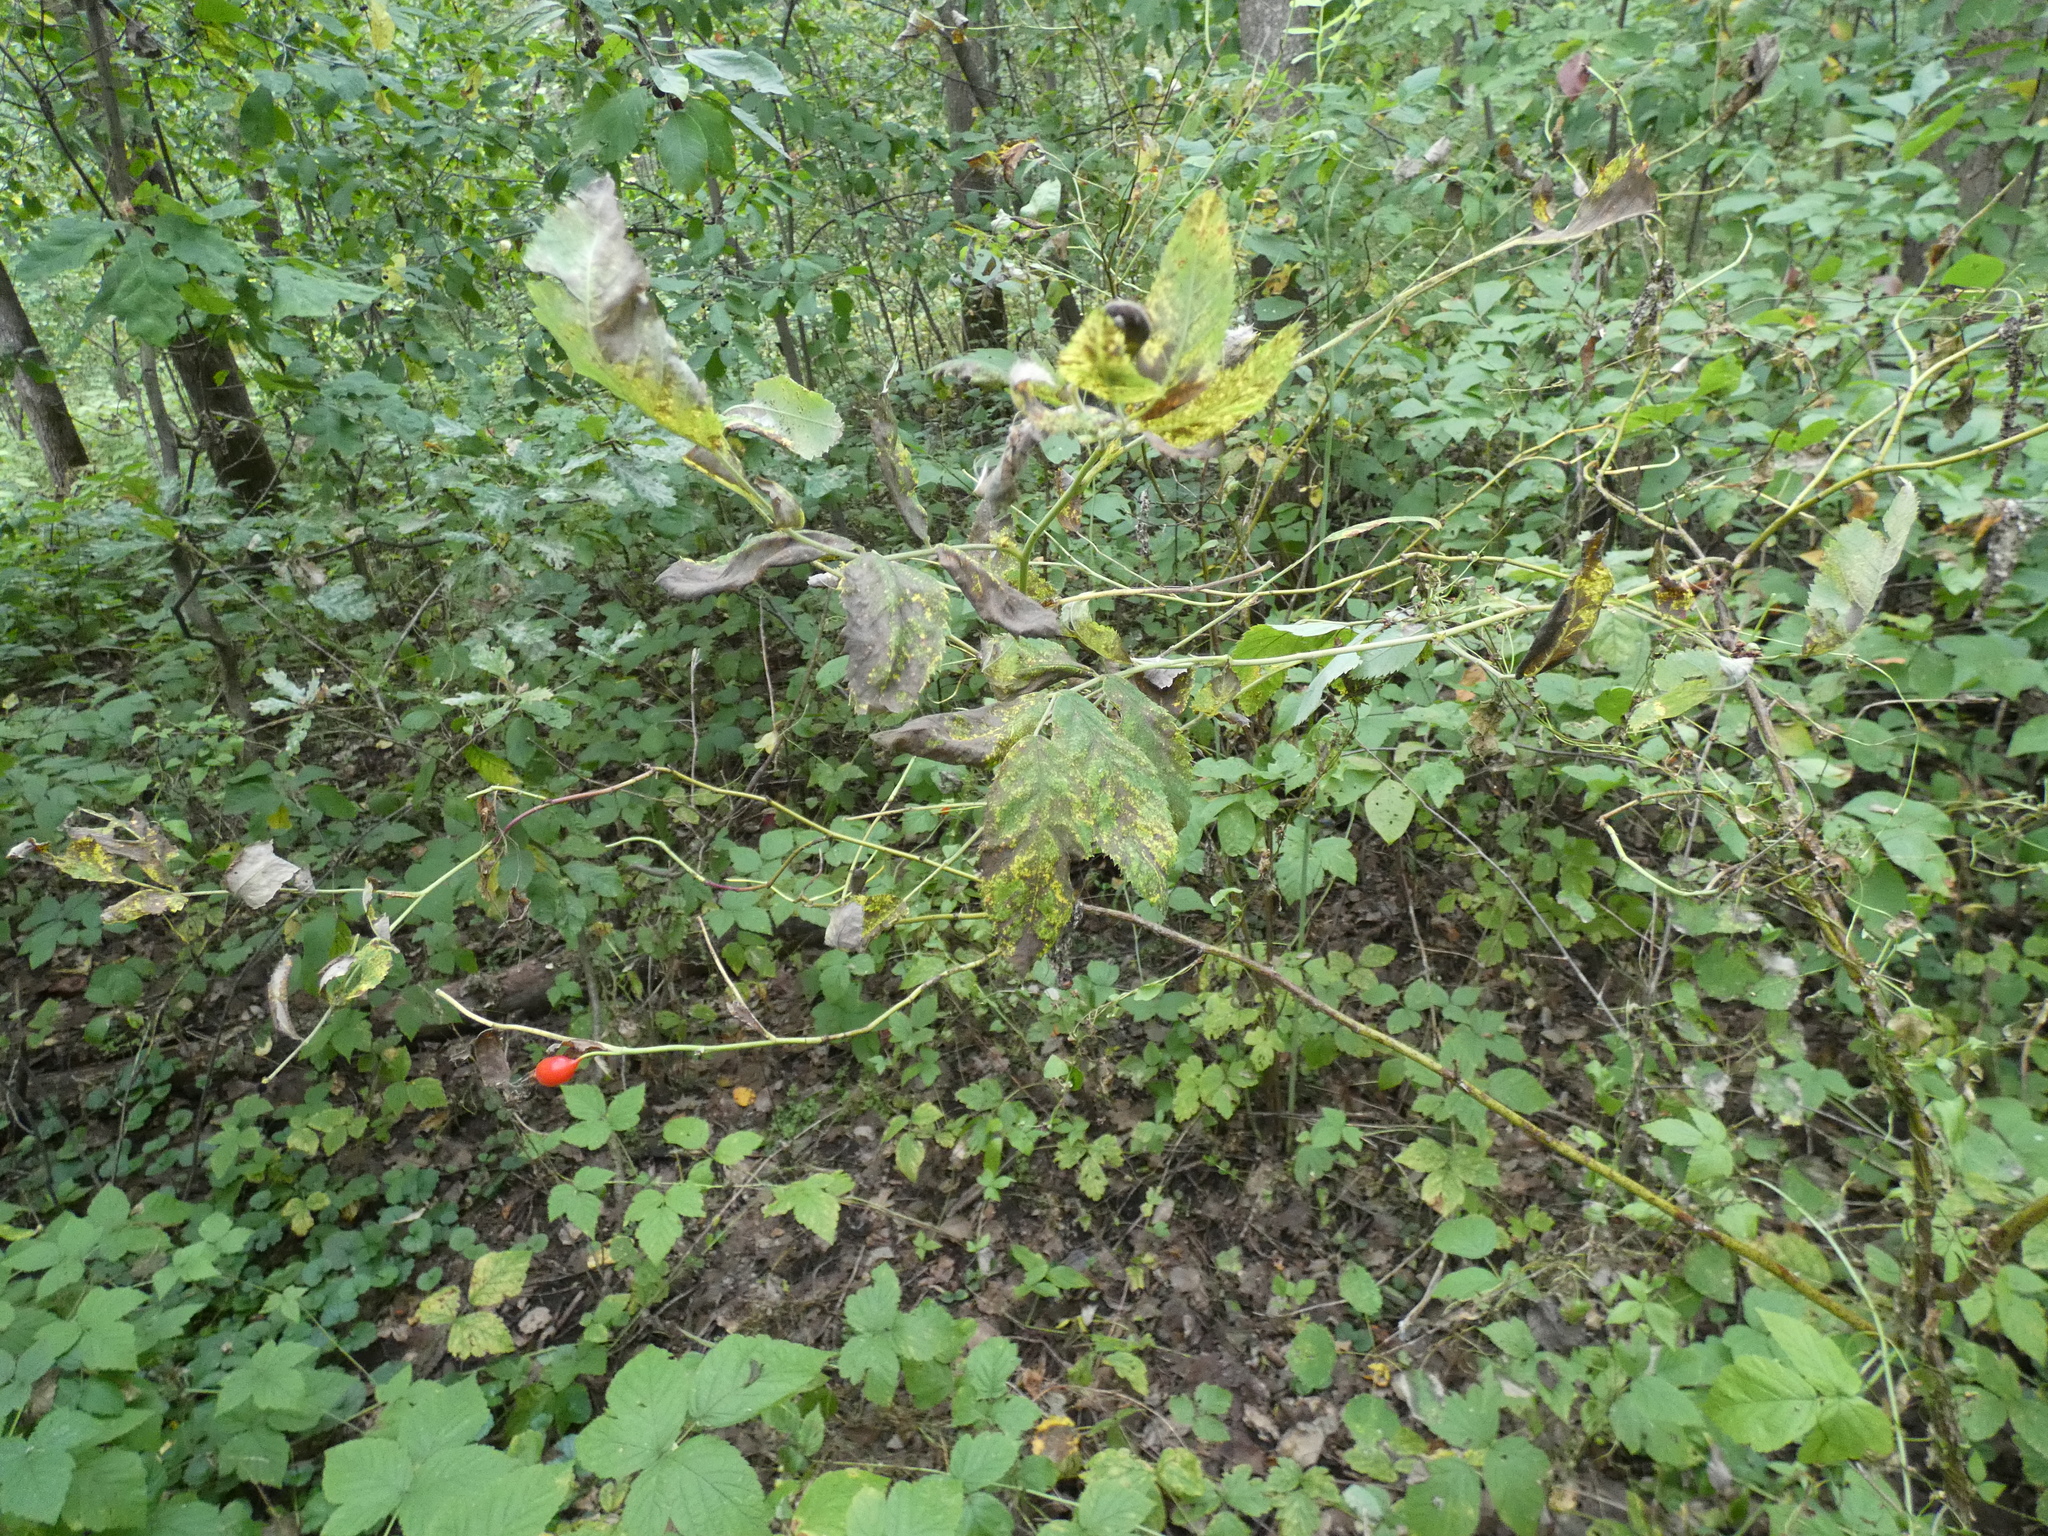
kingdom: Plantae
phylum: Tracheophyta
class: Magnoliopsida
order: Rosales
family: Rosaceae
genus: Rosa
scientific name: Rosa
